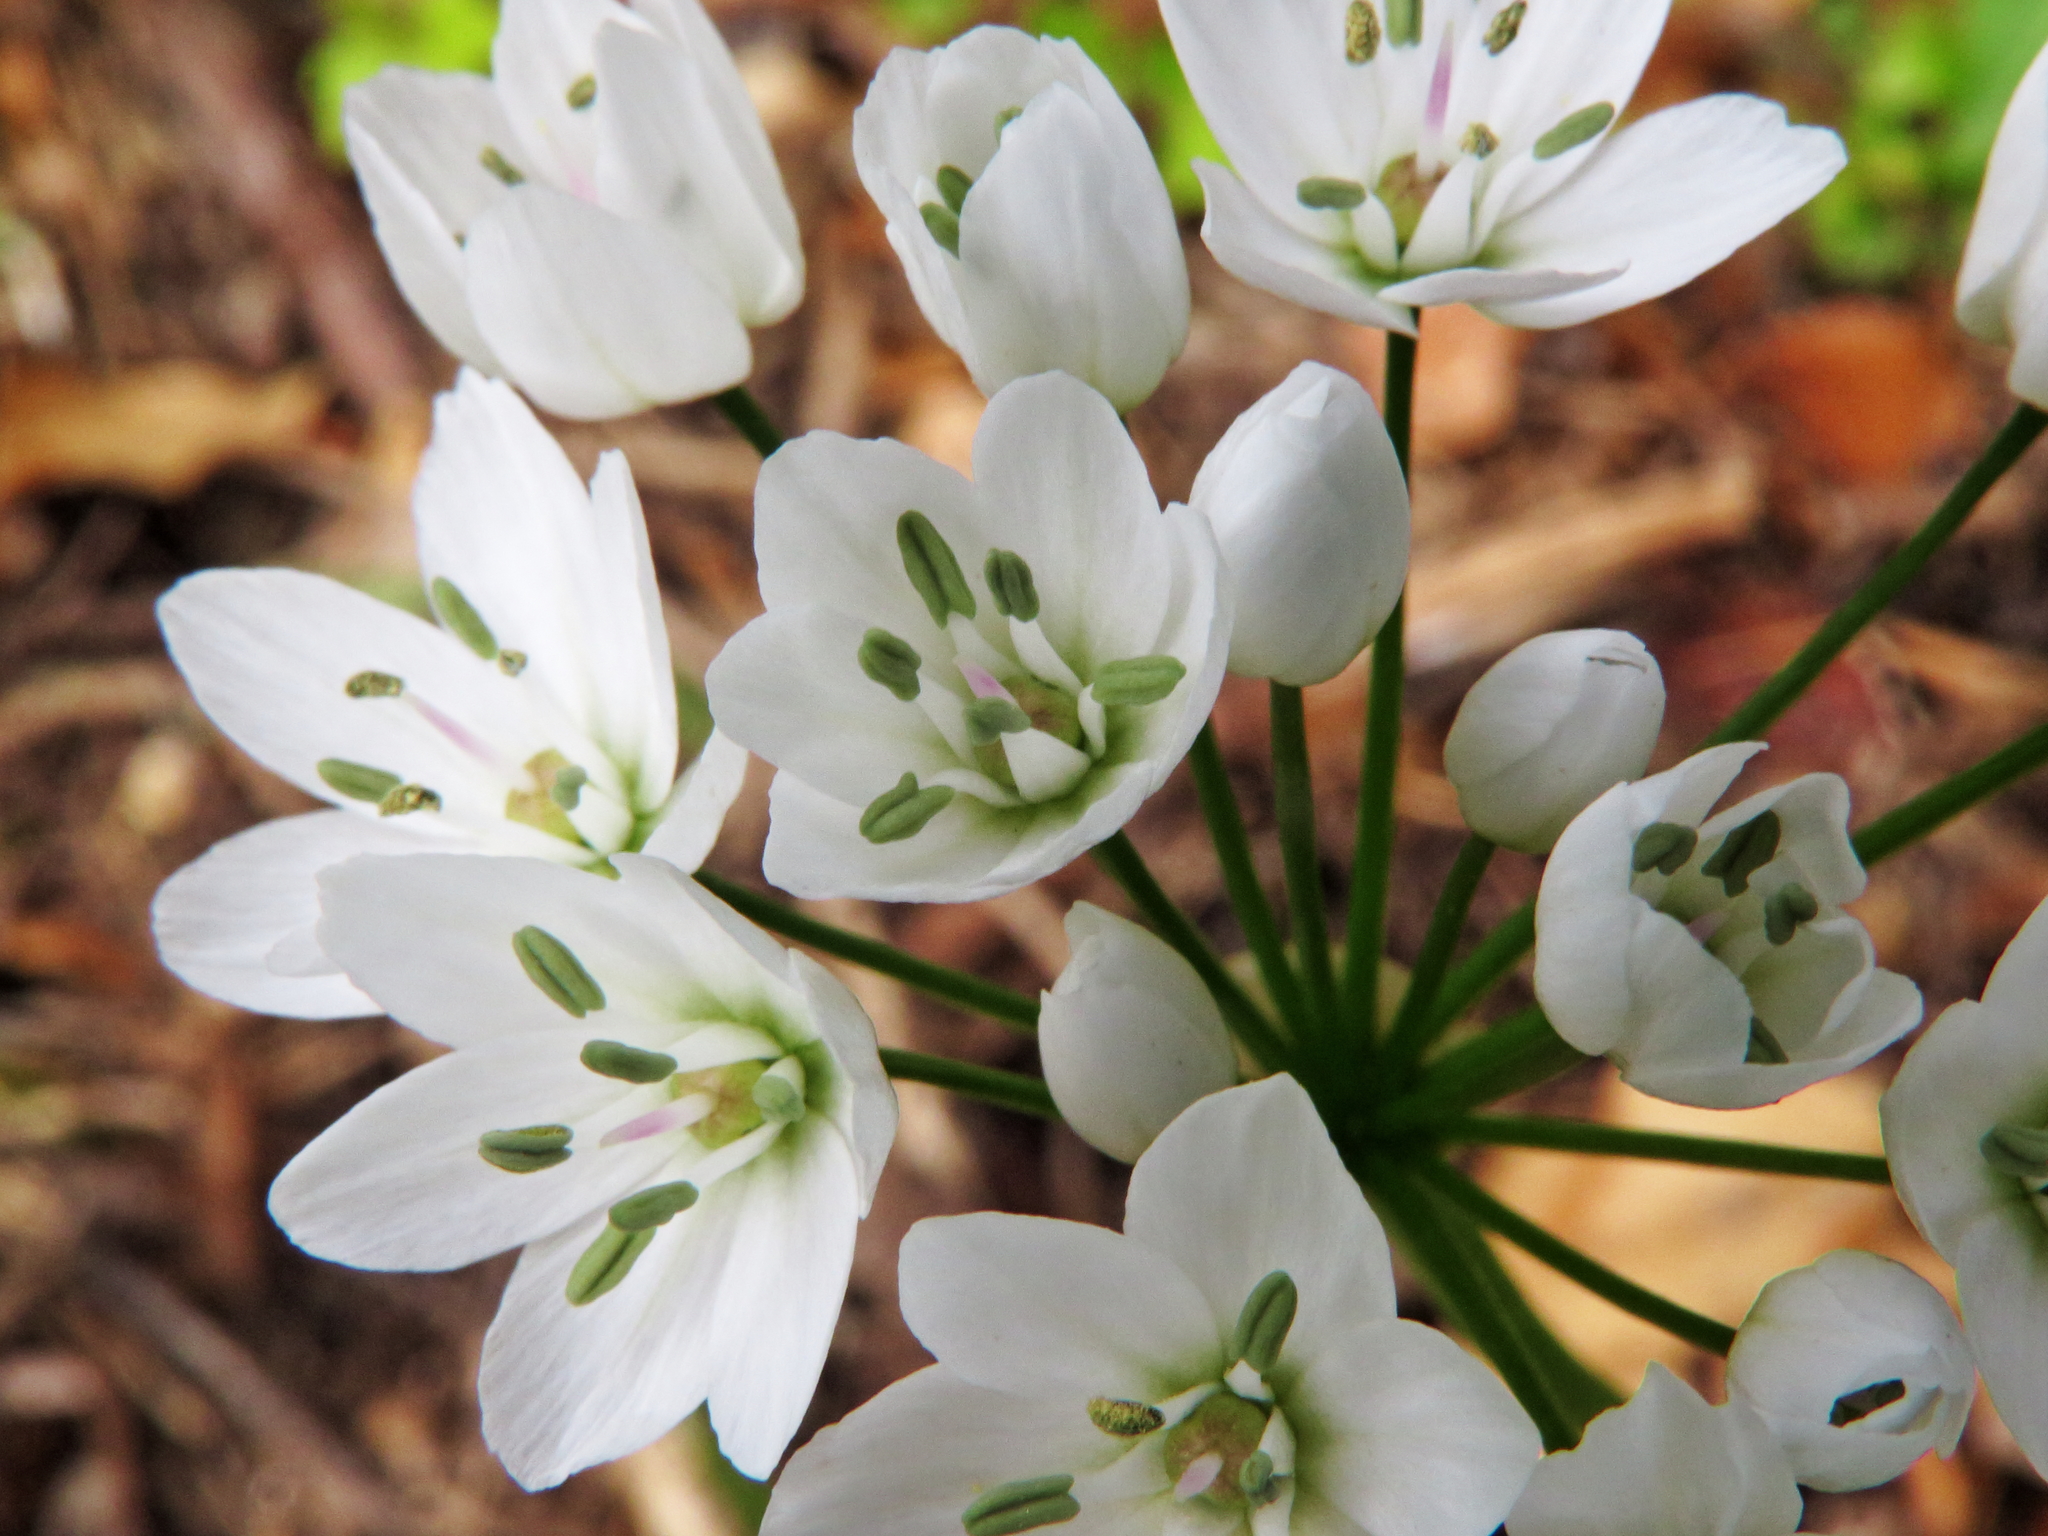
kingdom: Plantae
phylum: Tracheophyta
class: Liliopsida
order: Asparagales
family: Amaryllidaceae
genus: Allium
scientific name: Allium neapolitanum
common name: Neapolitan garlic
